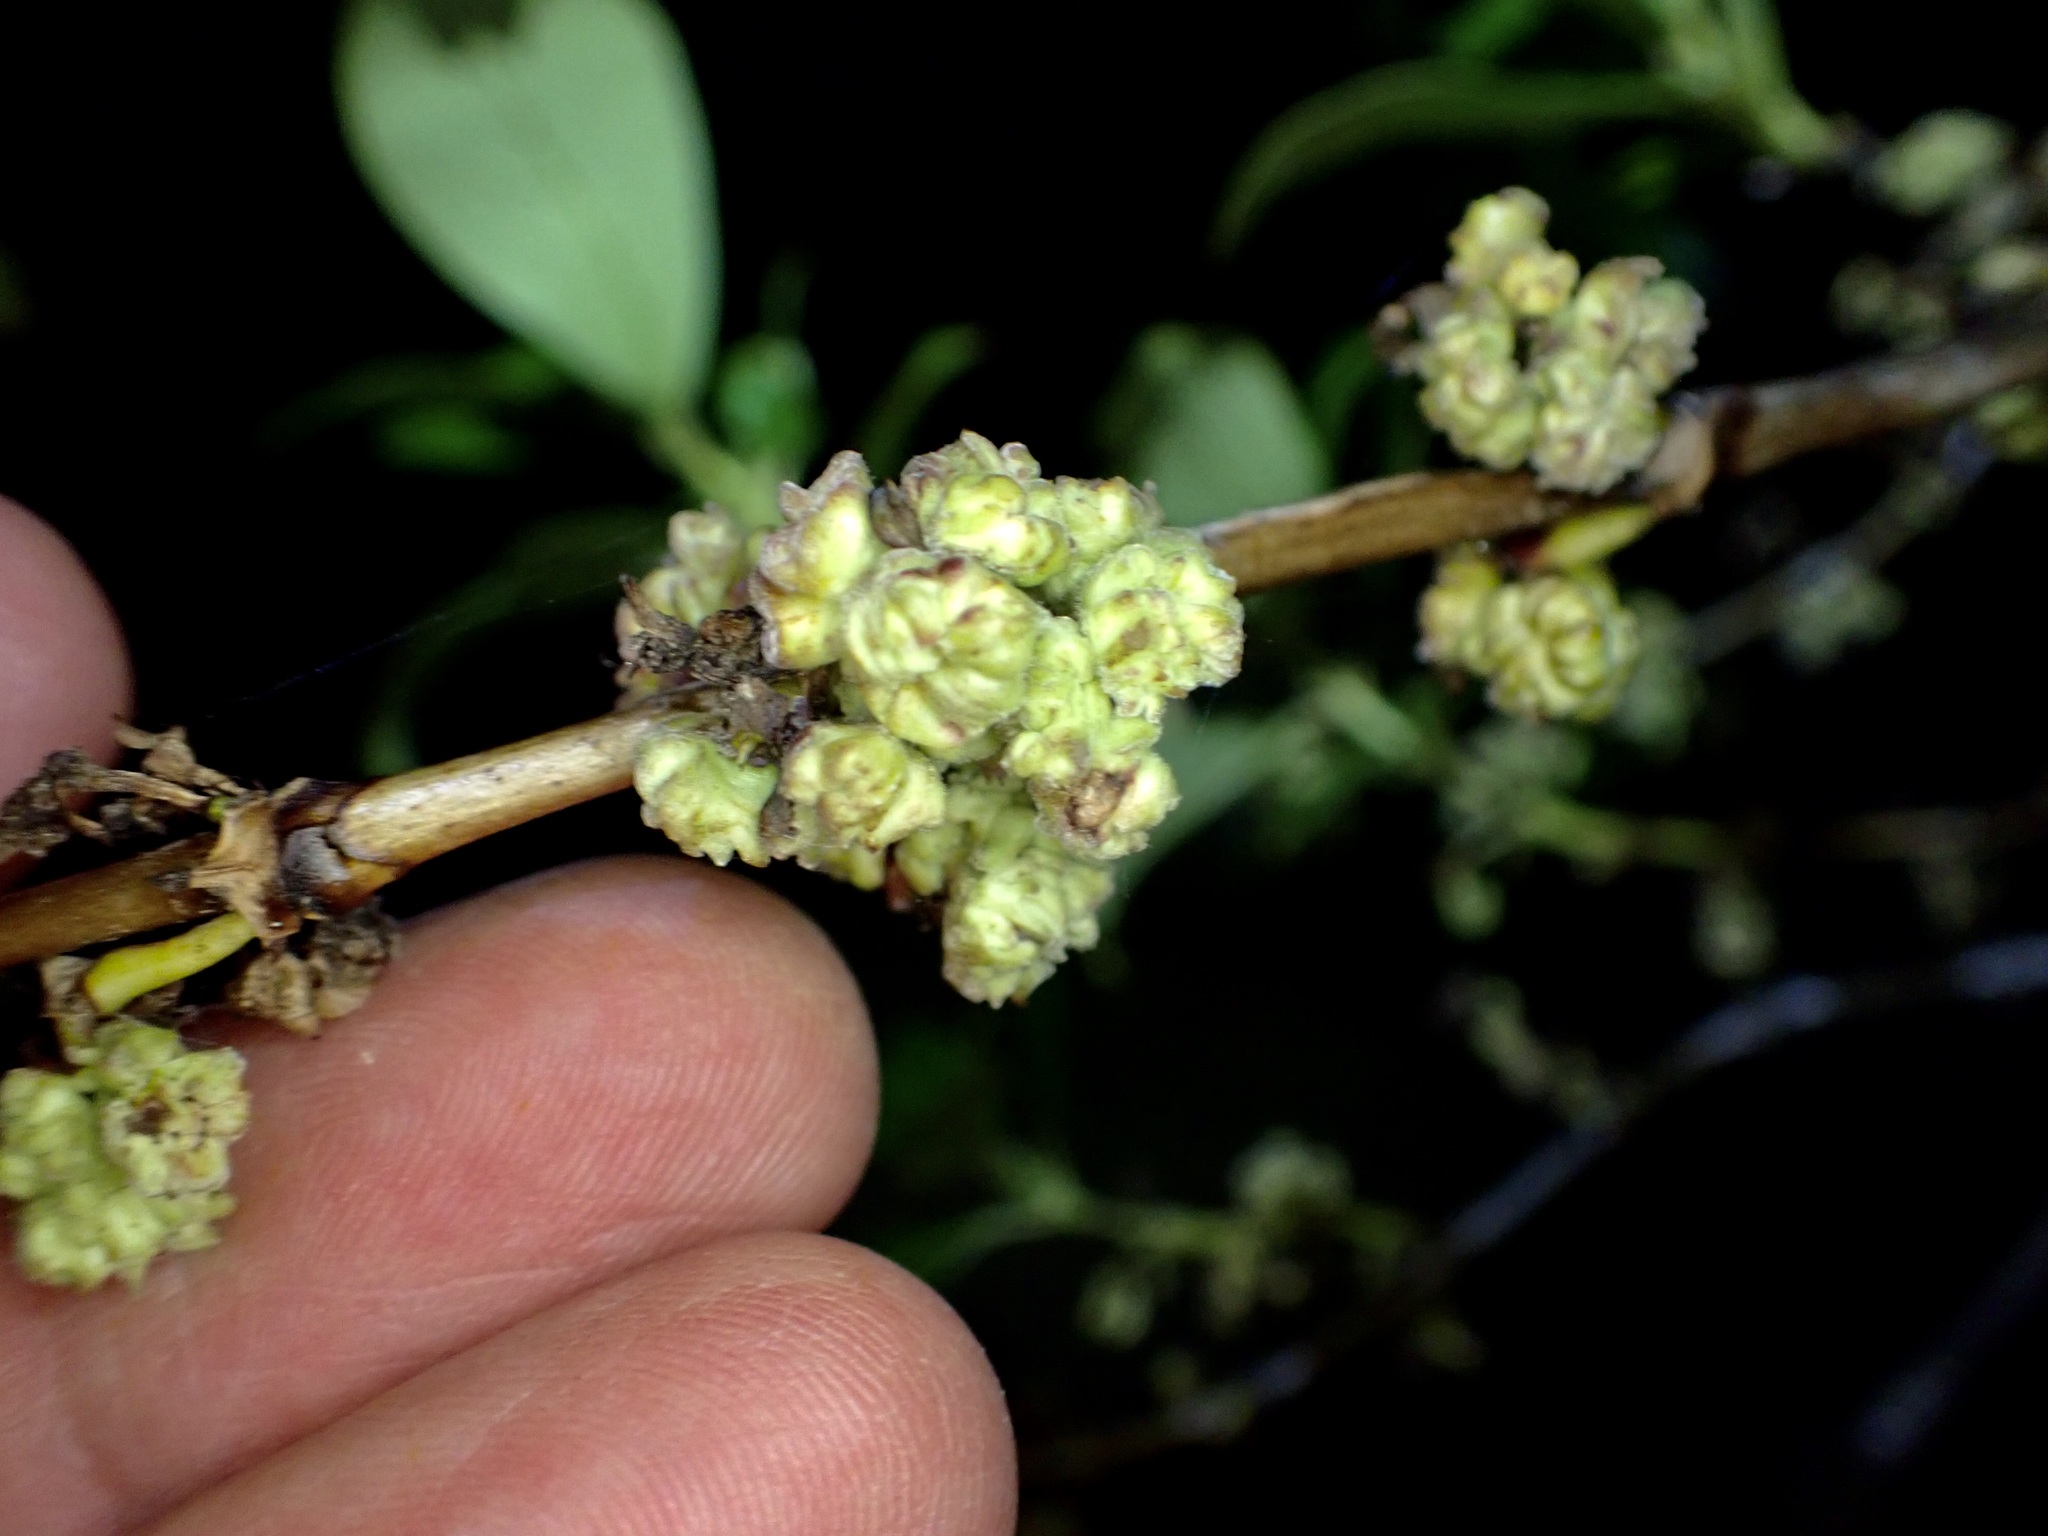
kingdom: Animalia
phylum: Arthropoda
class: Arachnida
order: Trombidiformes
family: Eriophyidae
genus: Acalitus
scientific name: Acalitus
